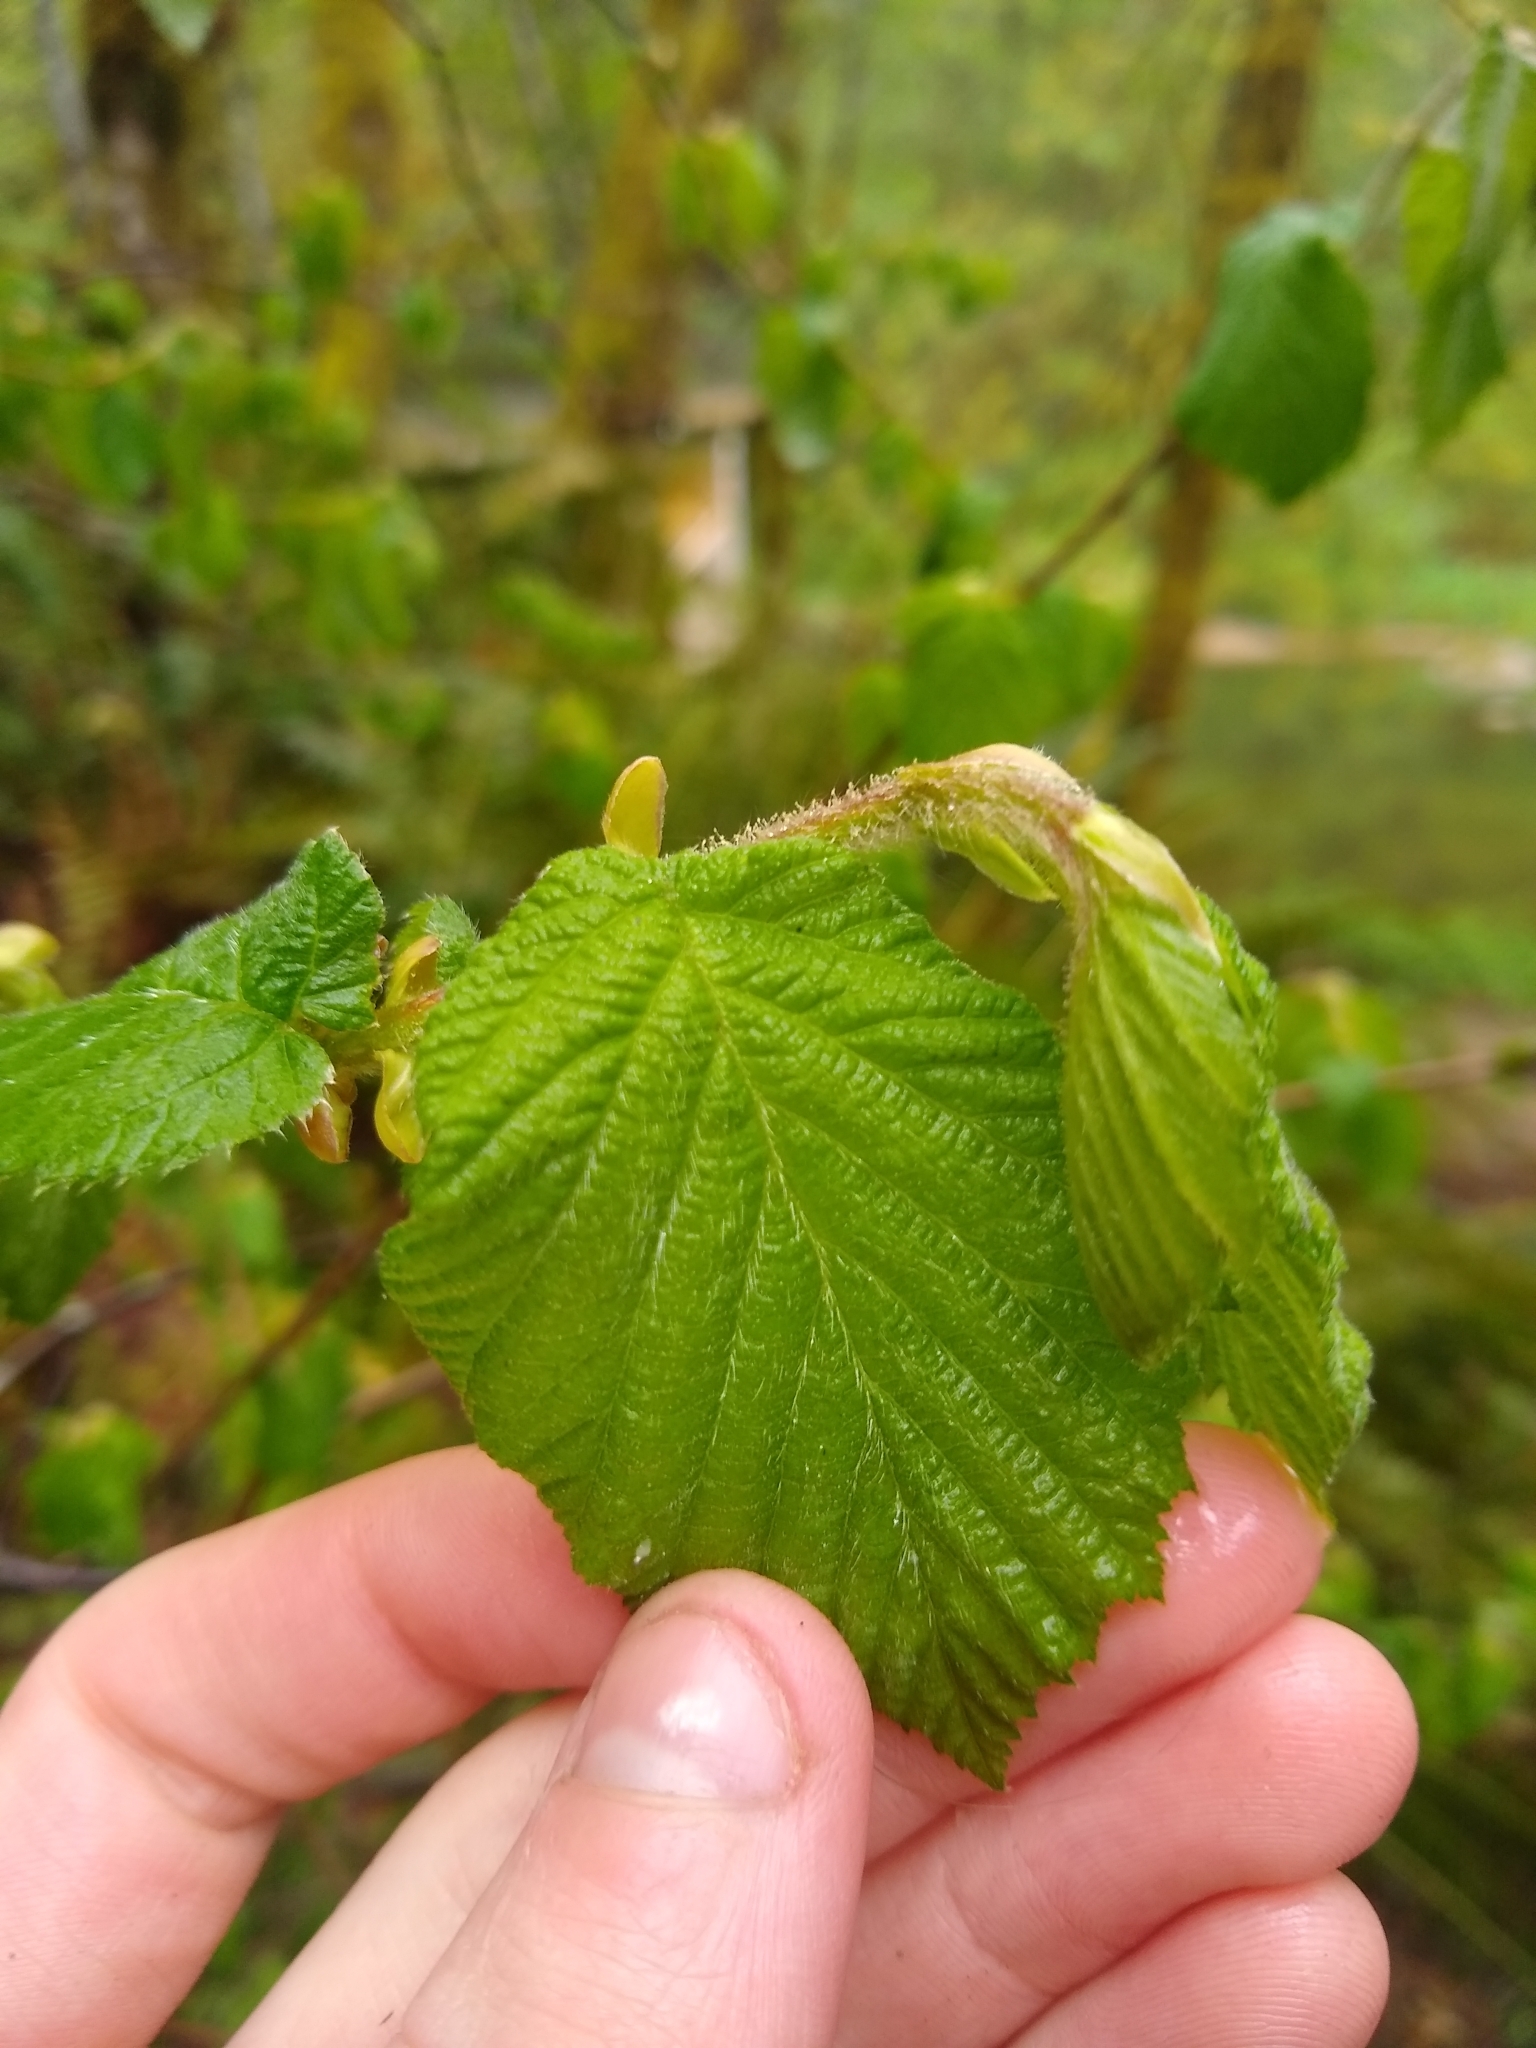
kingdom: Plantae
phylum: Tracheophyta
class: Magnoliopsida
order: Fagales
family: Betulaceae
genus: Corylus
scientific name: Corylus cornuta
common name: Beaked hazel
